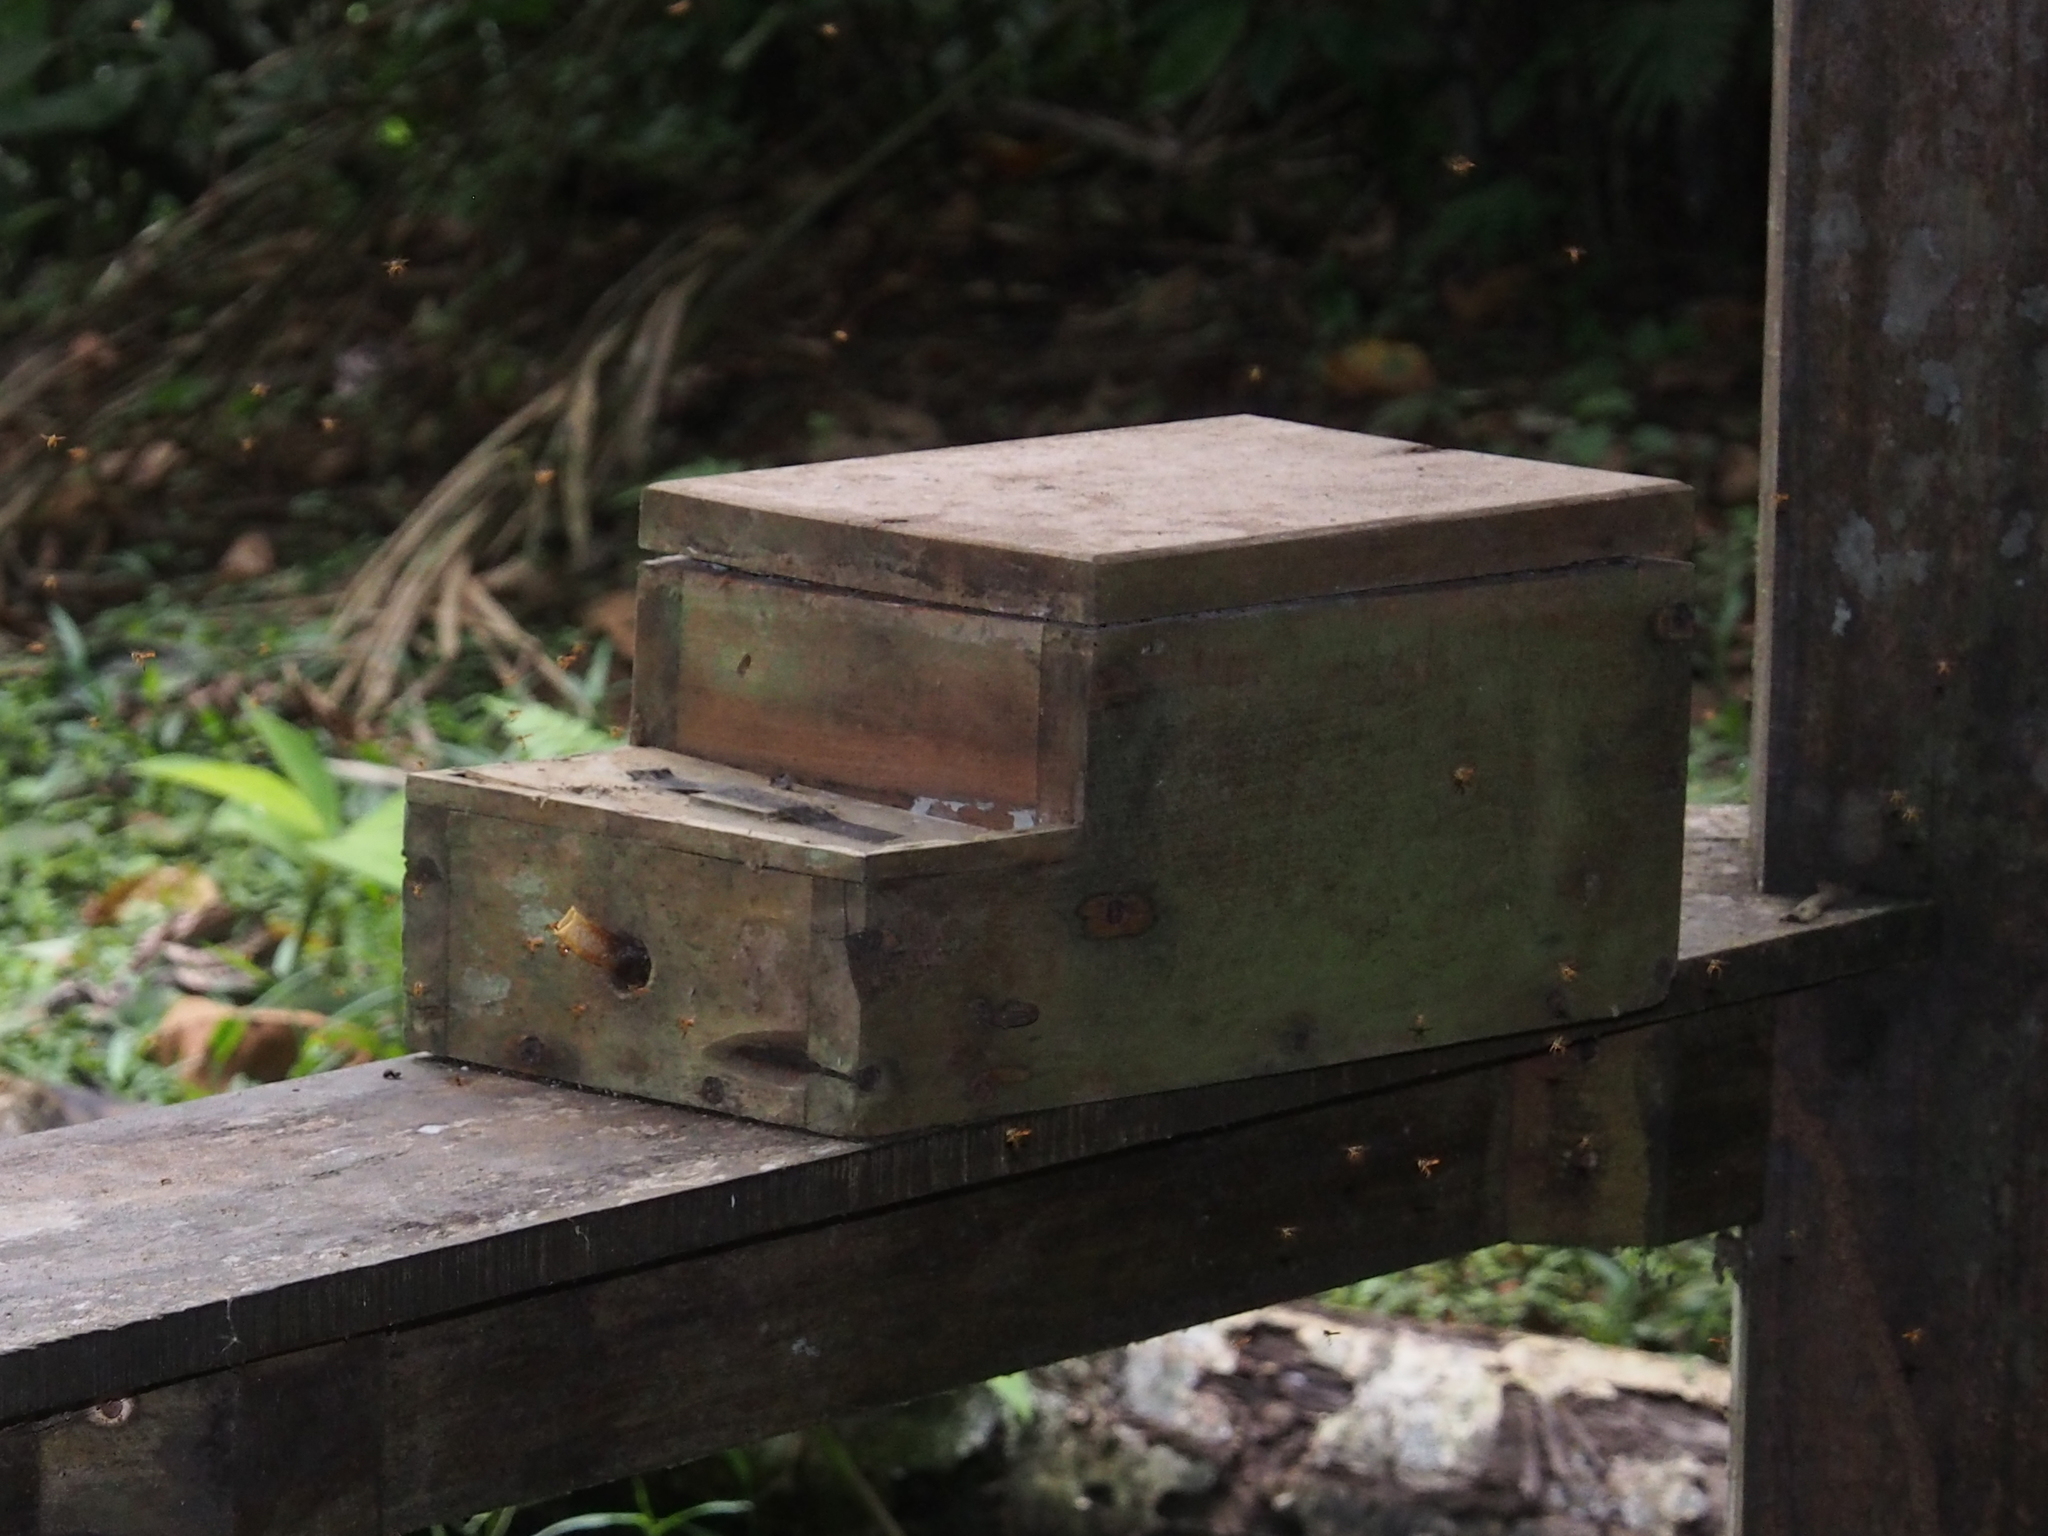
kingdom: Animalia
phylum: Arthropoda
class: Insecta
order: Hymenoptera
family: Apidae
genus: Tetragonisca
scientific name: Tetragonisca angustula
